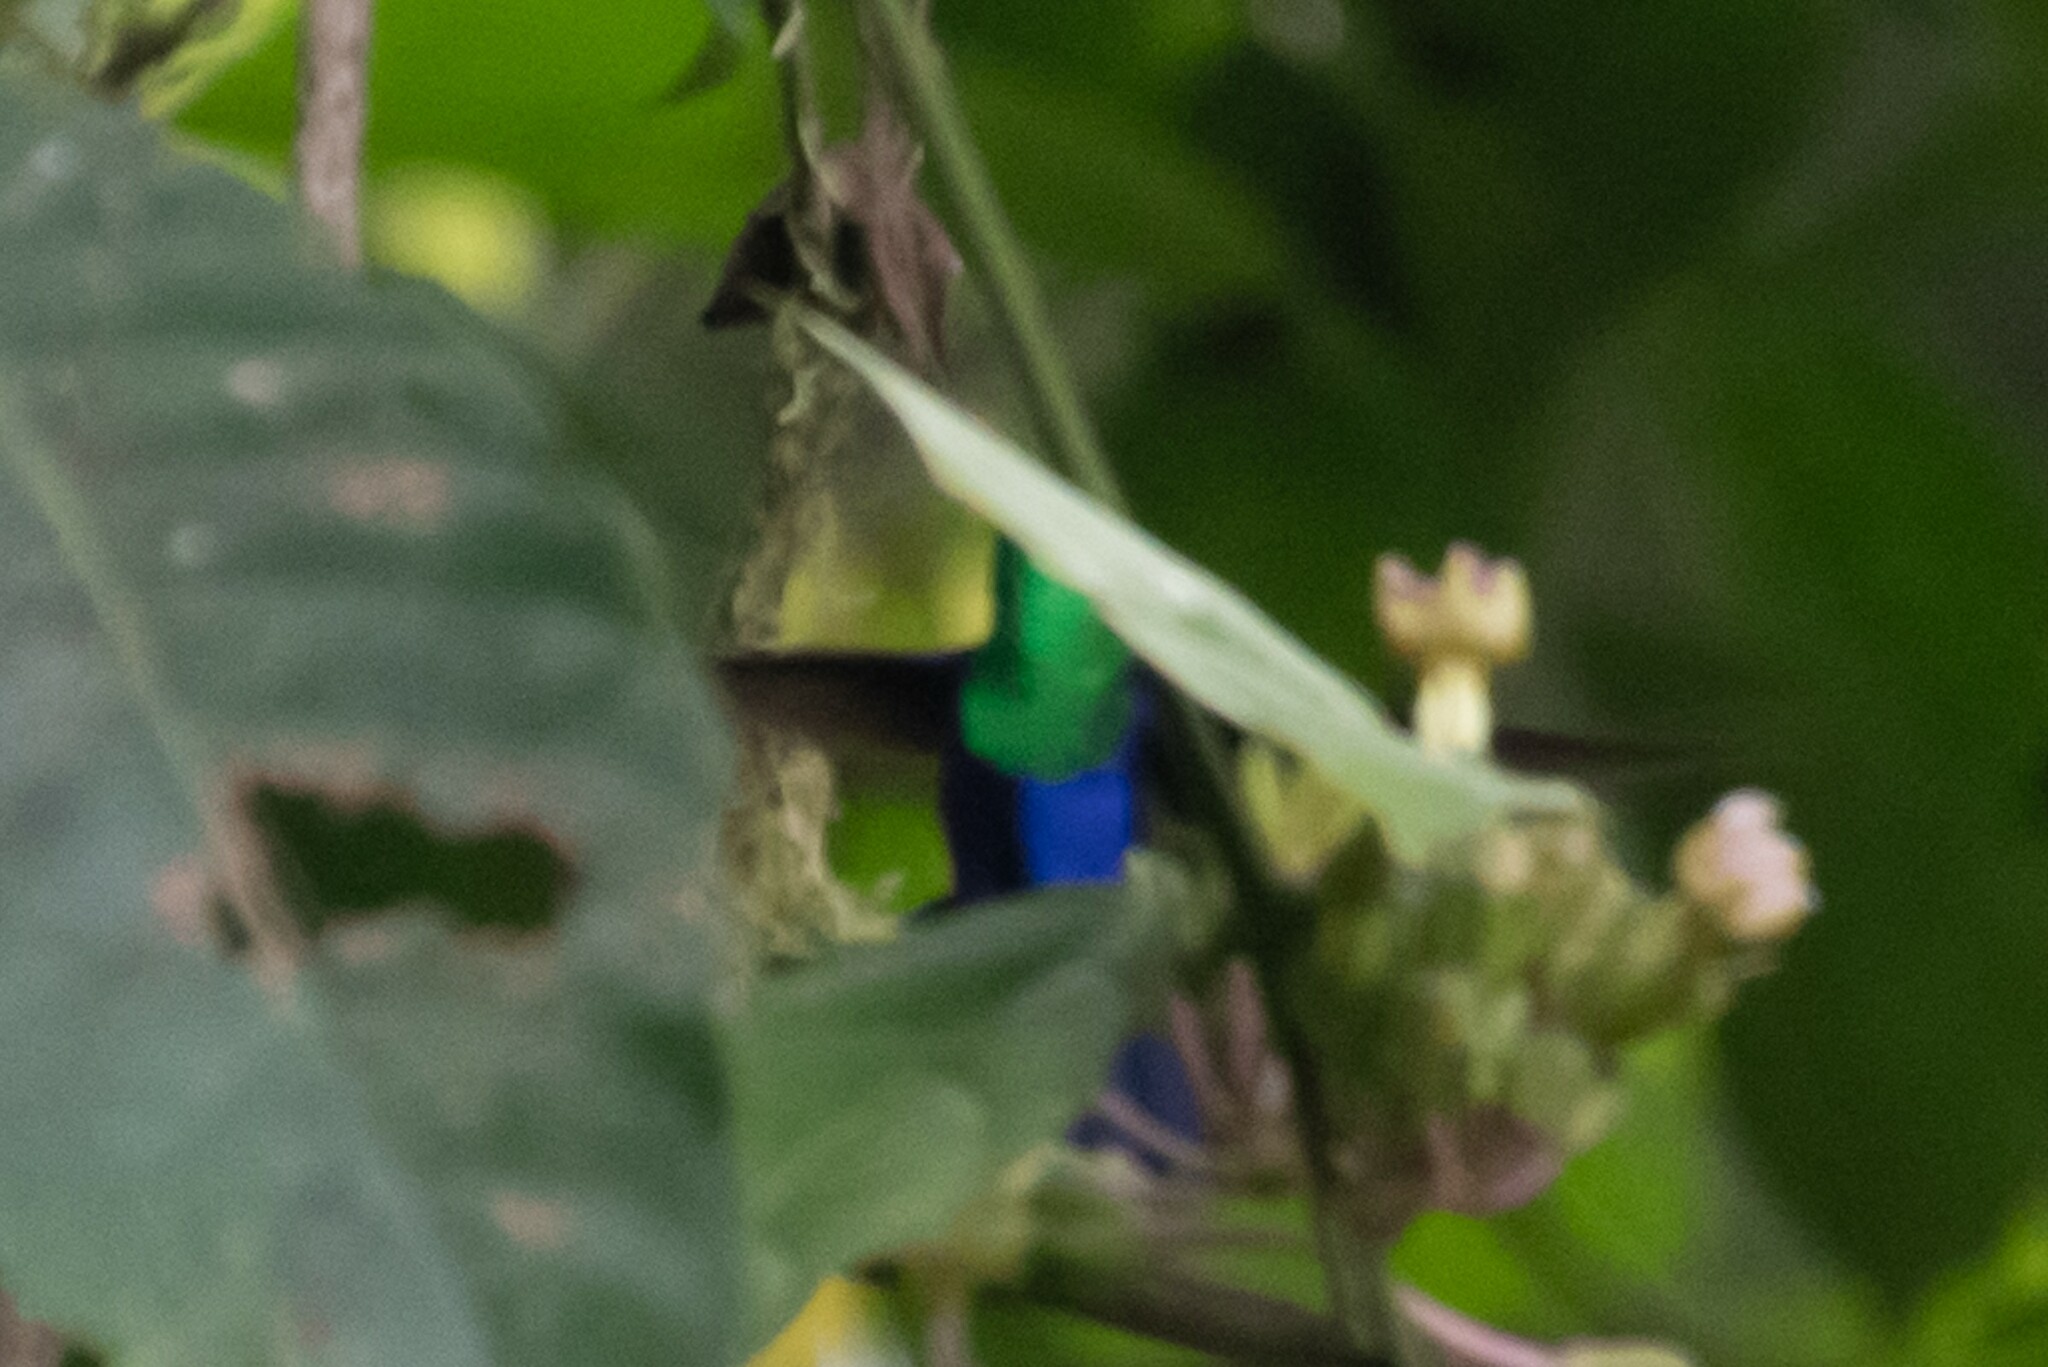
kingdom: Animalia
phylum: Chordata
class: Aves
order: Apodiformes
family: Trochilidae
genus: Thalurania
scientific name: Thalurania colombica
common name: Crowned woodnymph
